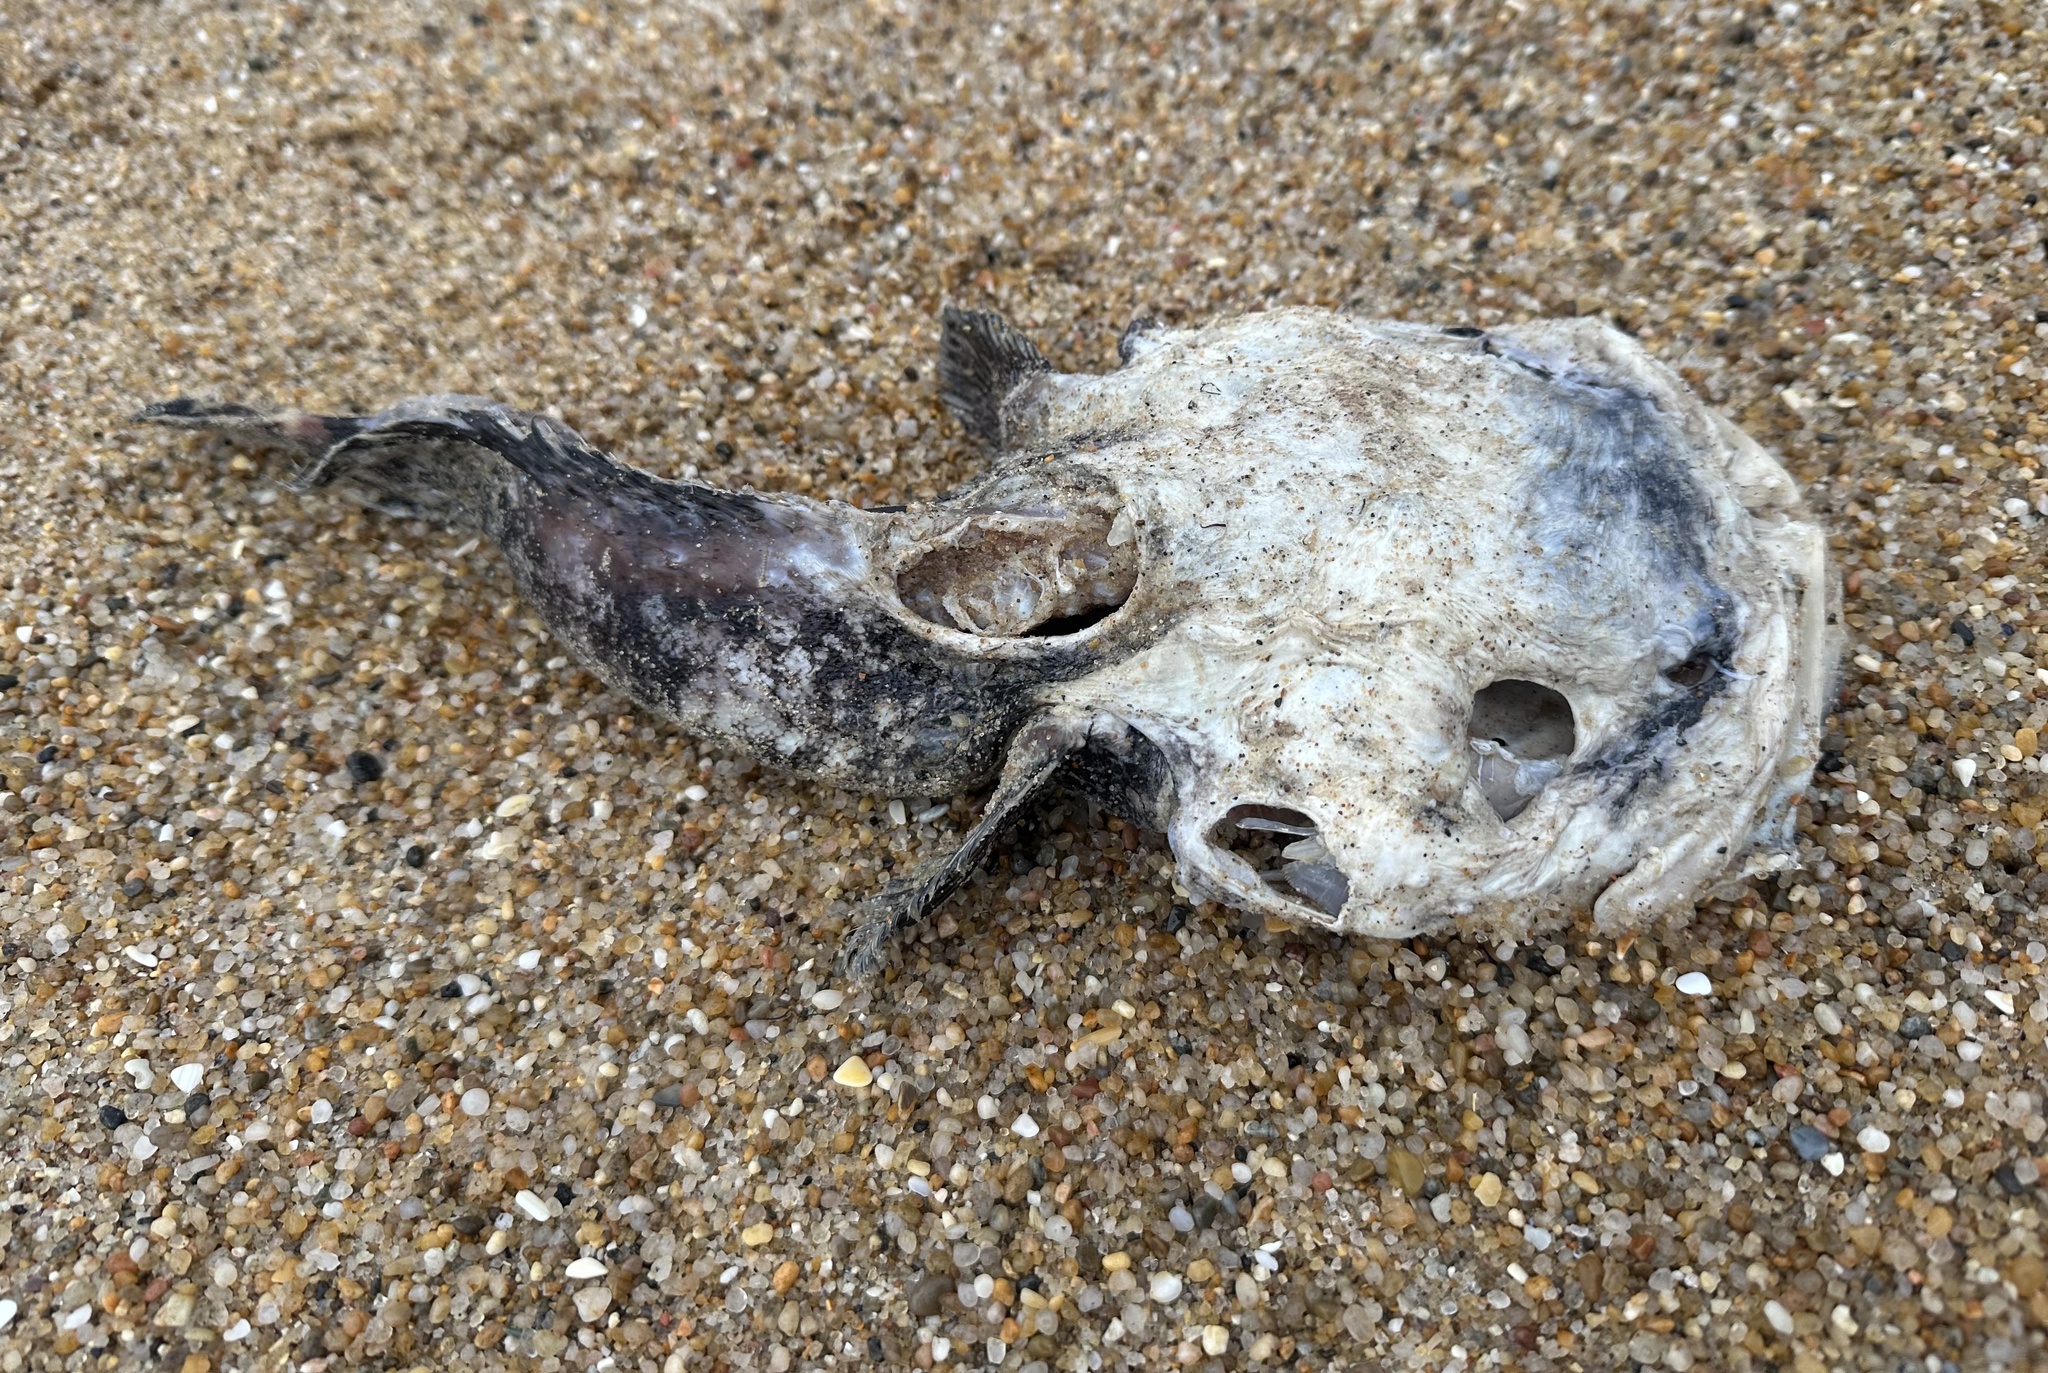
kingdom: Animalia
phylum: Chordata
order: Batrachoidiformes
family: Batrachoididae
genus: Halobatrachus
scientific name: Halobatrachus didactylus
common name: Lusitanian toadfish
